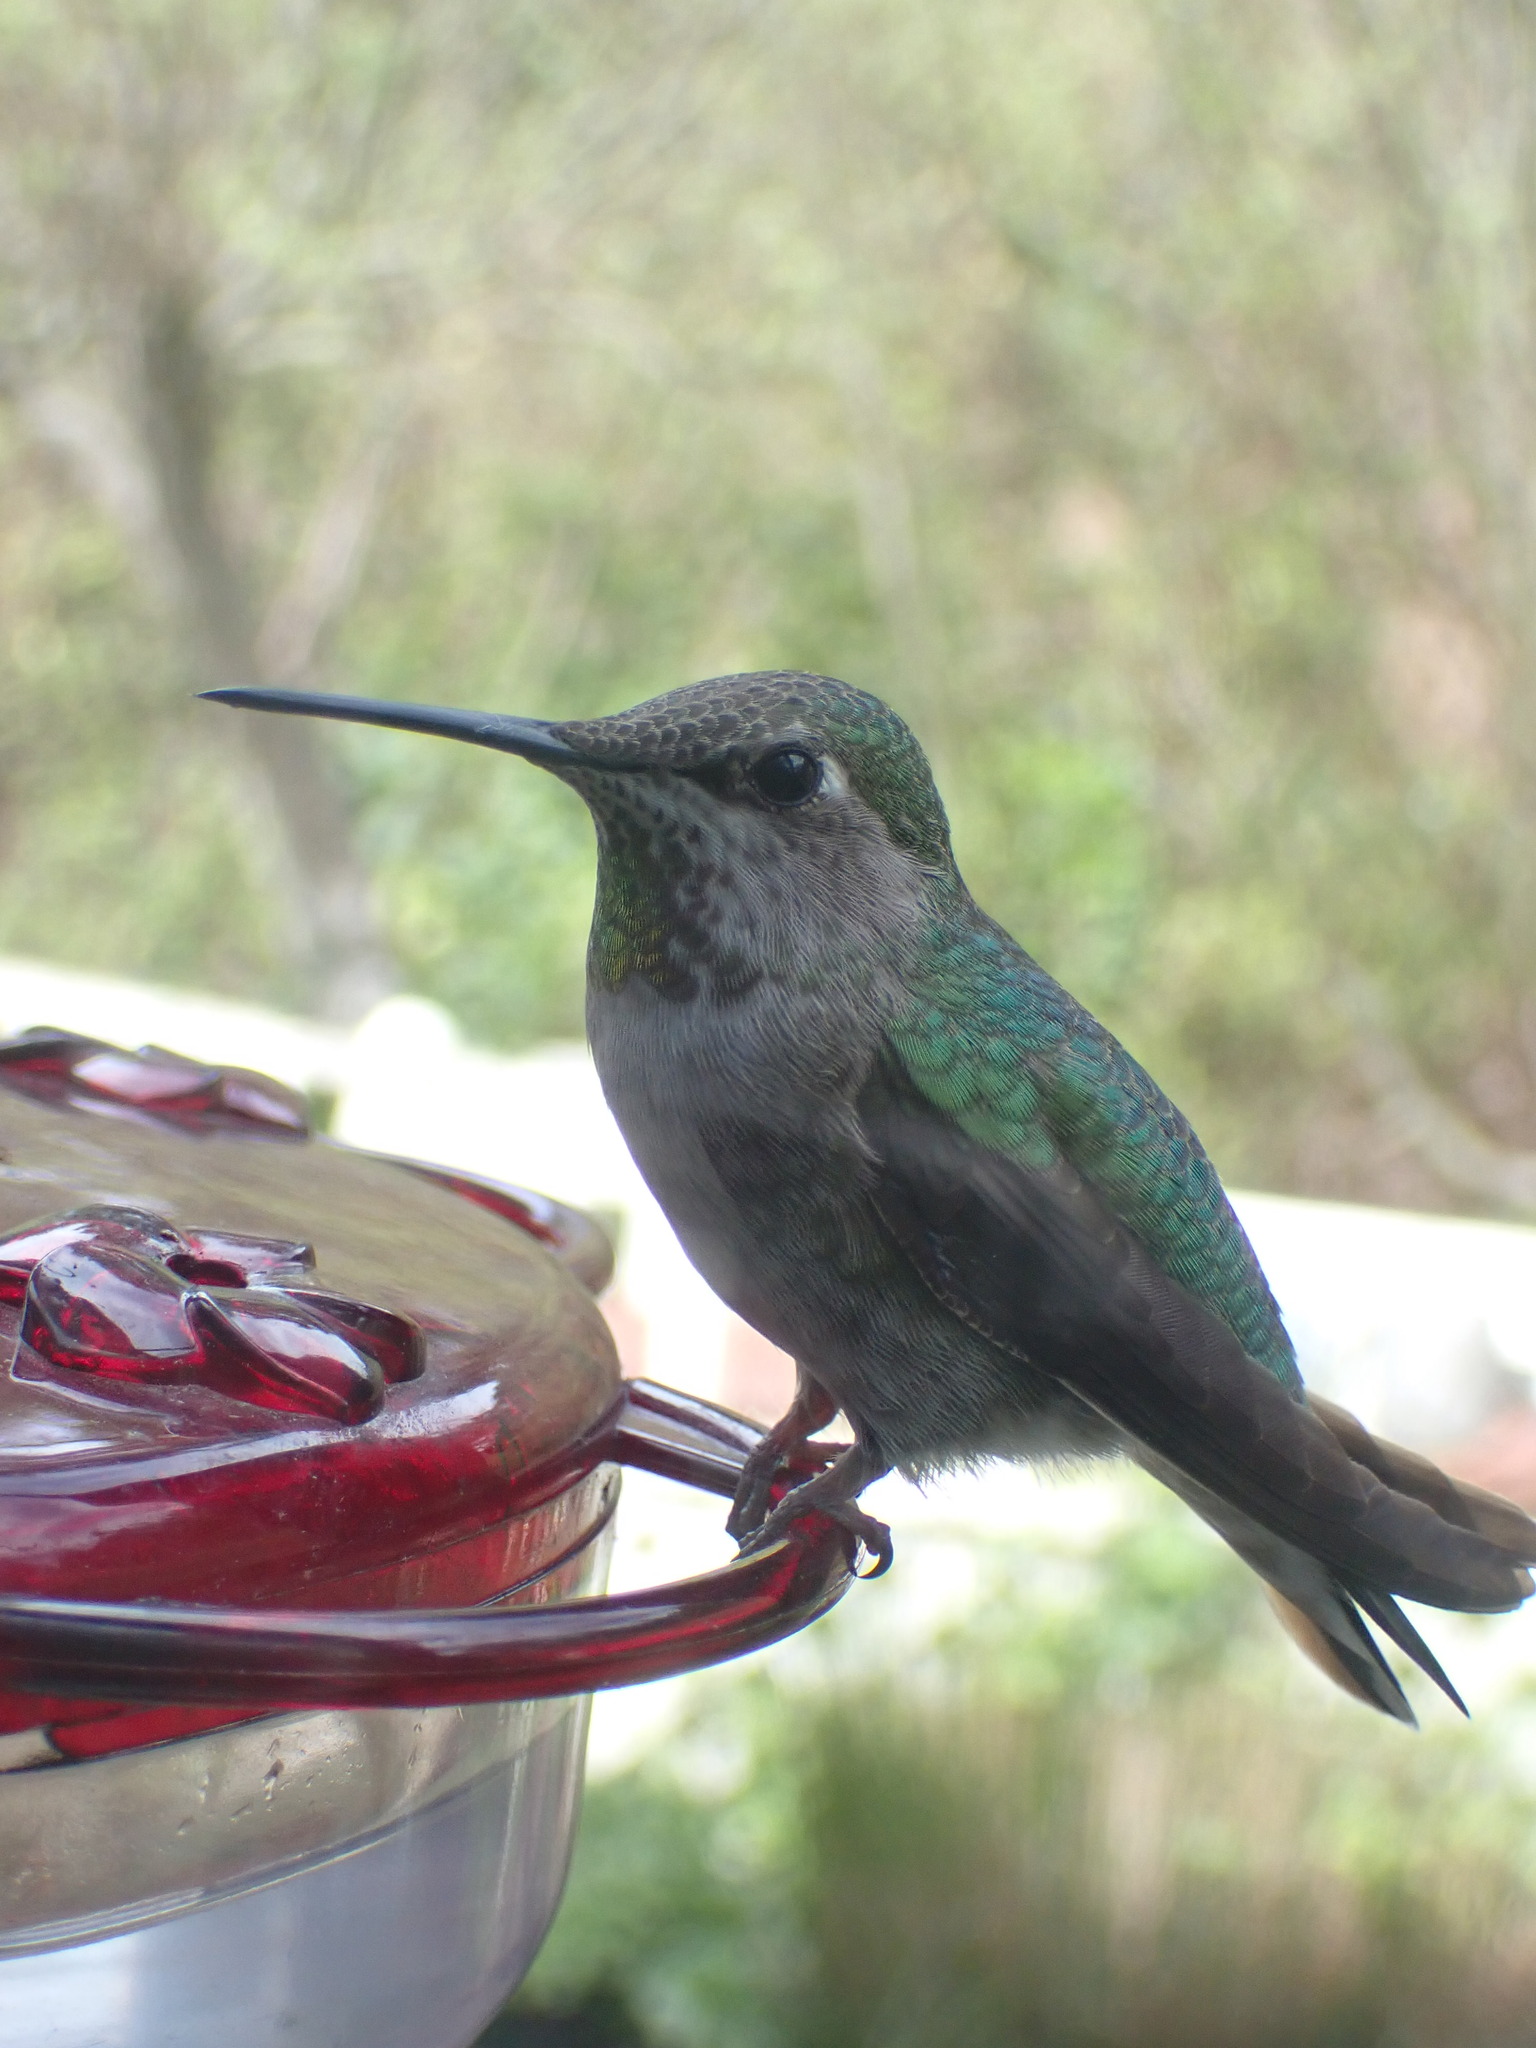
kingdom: Animalia
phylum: Chordata
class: Aves
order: Apodiformes
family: Trochilidae
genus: Calypte
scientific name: Calypte anna
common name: Anna's hummingbird
